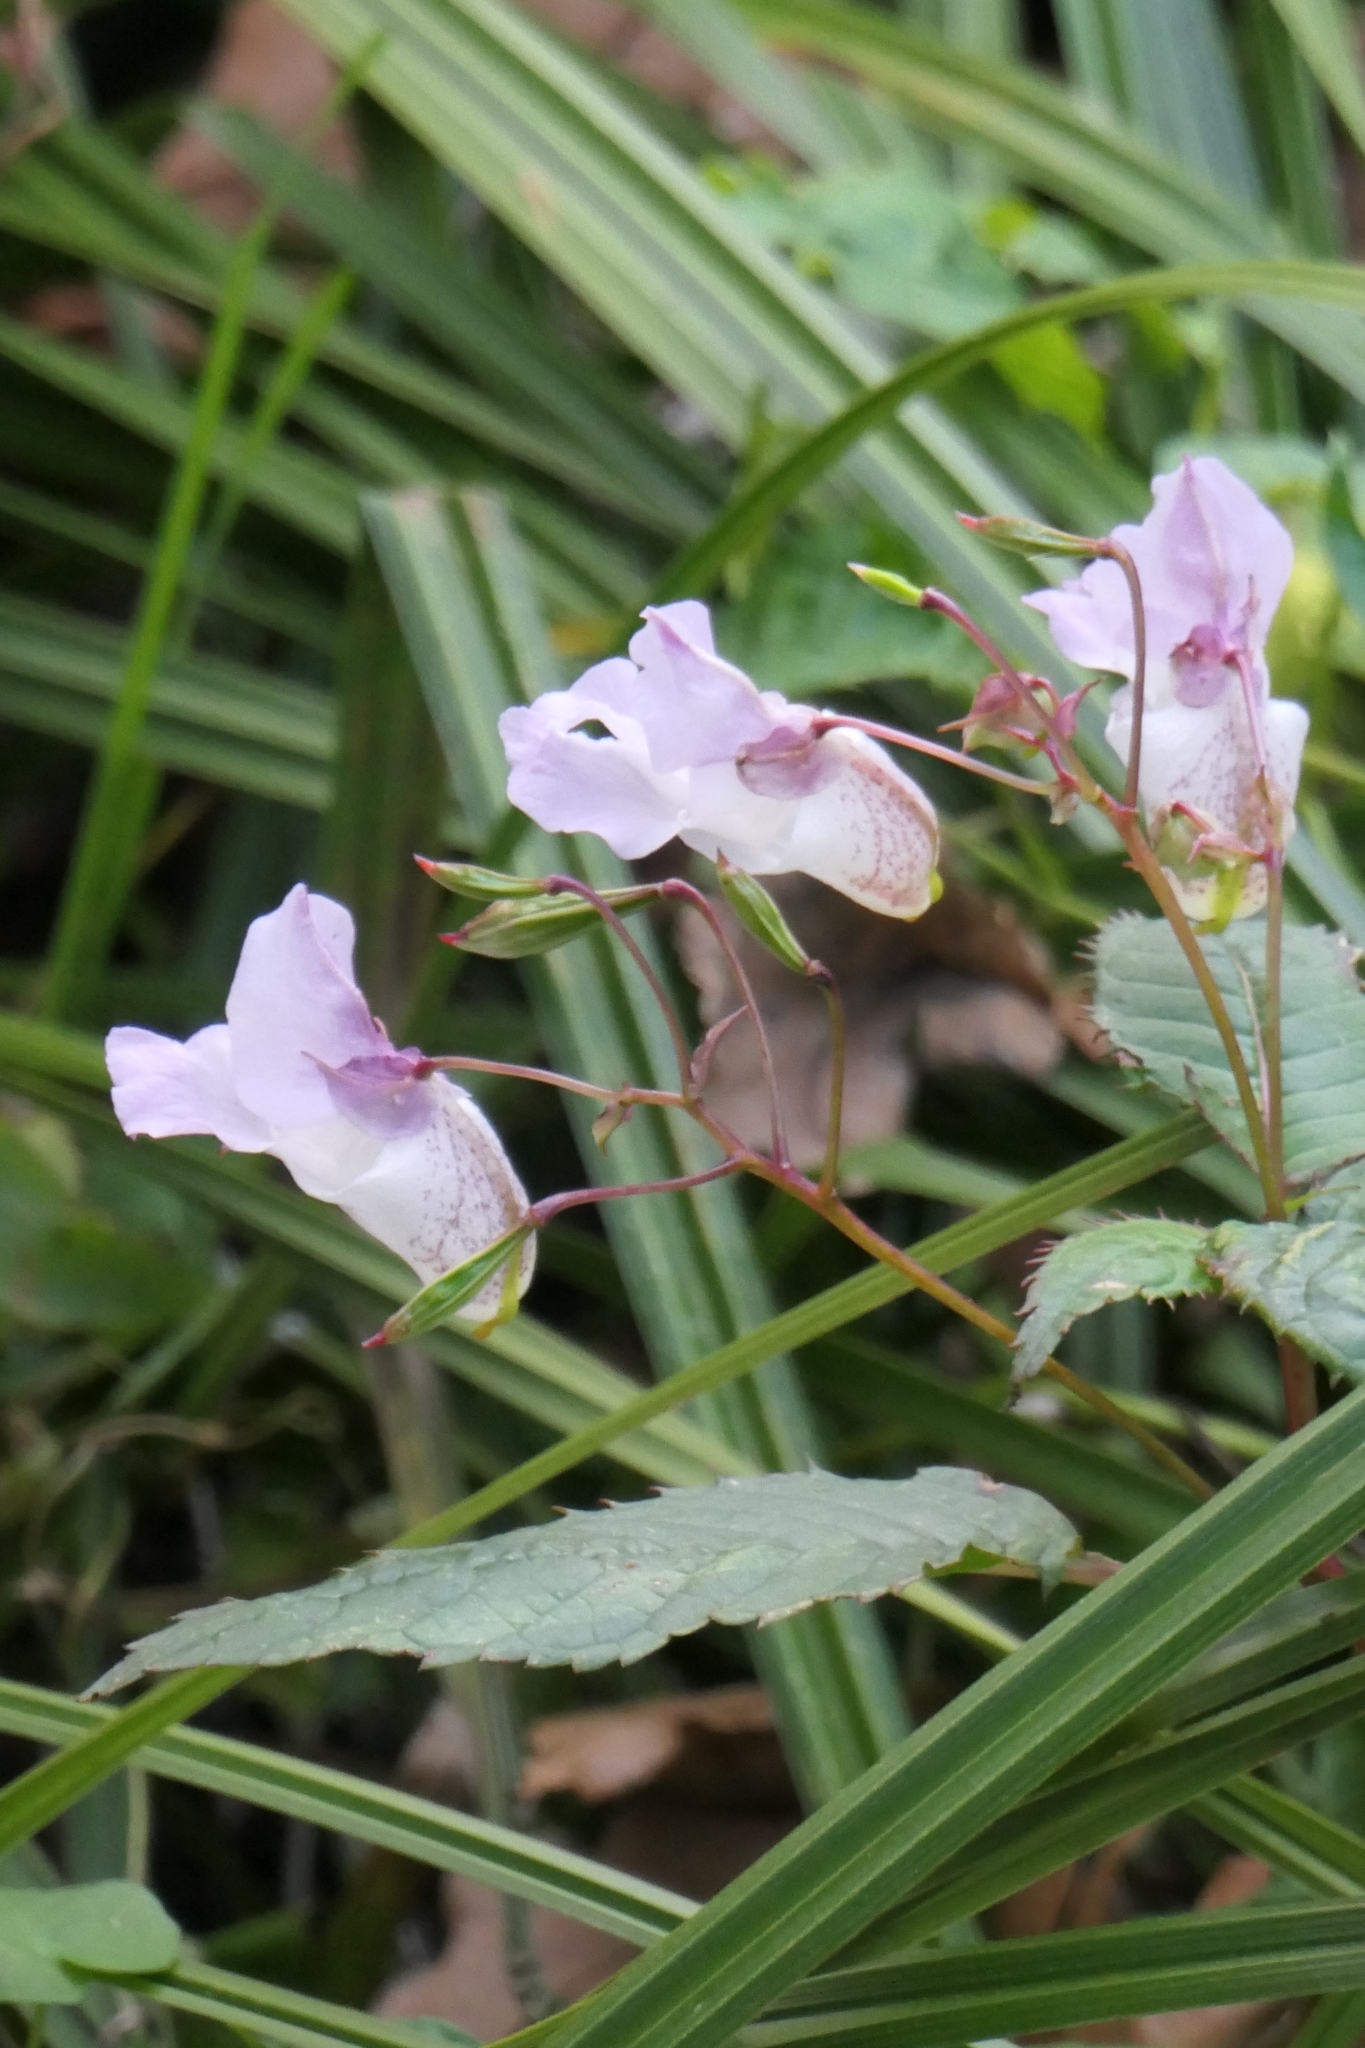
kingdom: Plantae
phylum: Tracheophyta
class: Magnoliopsida
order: Ericales
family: Balsaminaceae
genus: Impatiens
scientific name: Impatiens glandulifera
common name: Himalayan balsam
